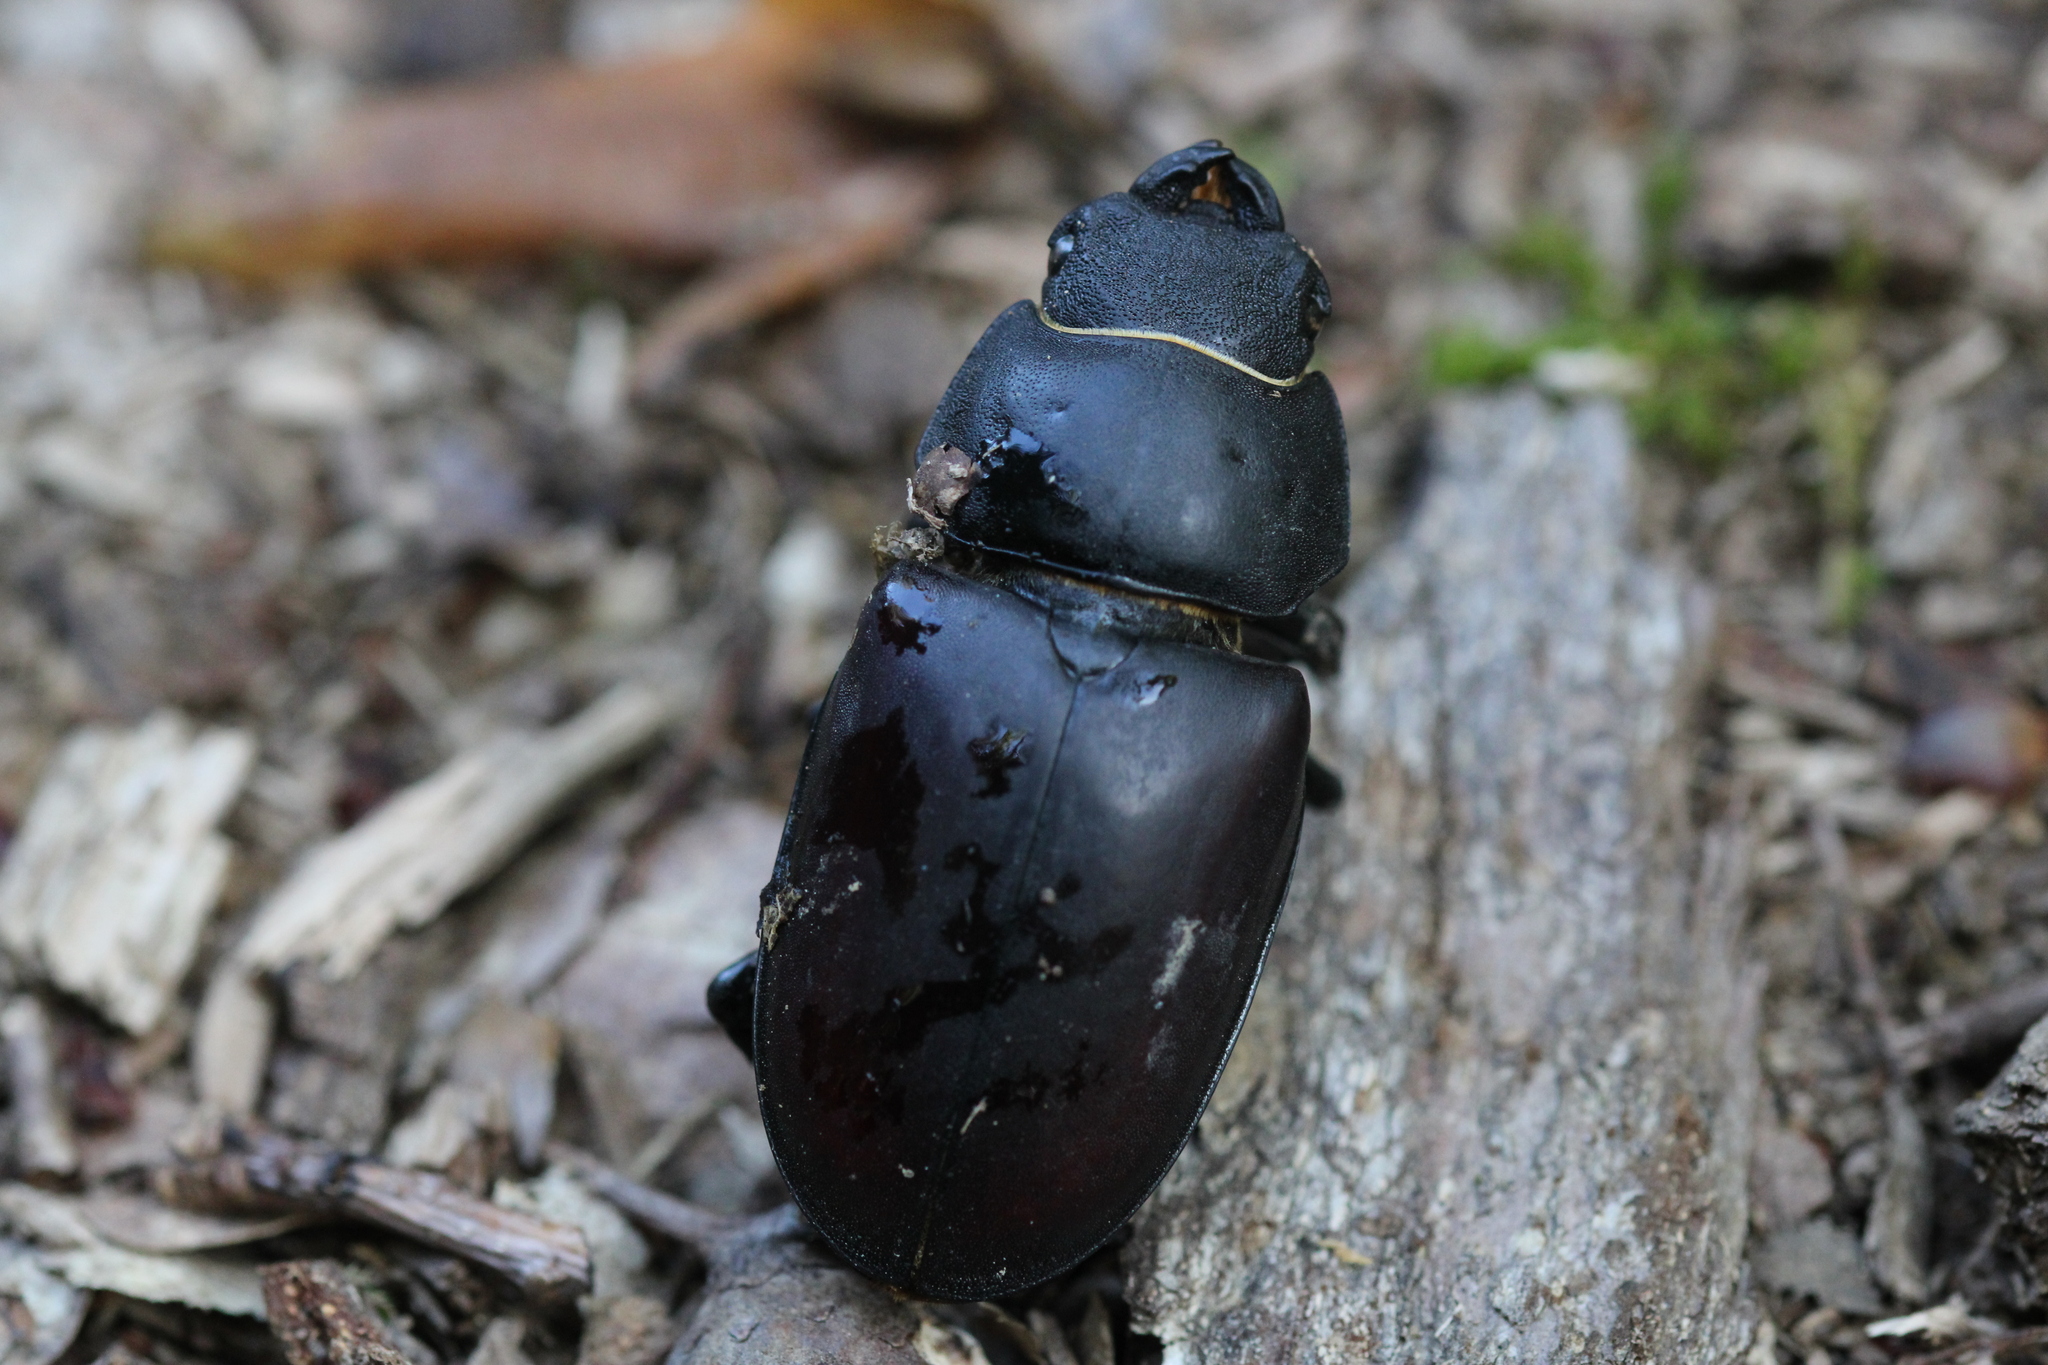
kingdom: Animalia
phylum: Arthropoda
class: Insecta
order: Coleoptera
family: Lucanidae
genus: Lucanus
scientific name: Lucanus cervus
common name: Stag beetle
